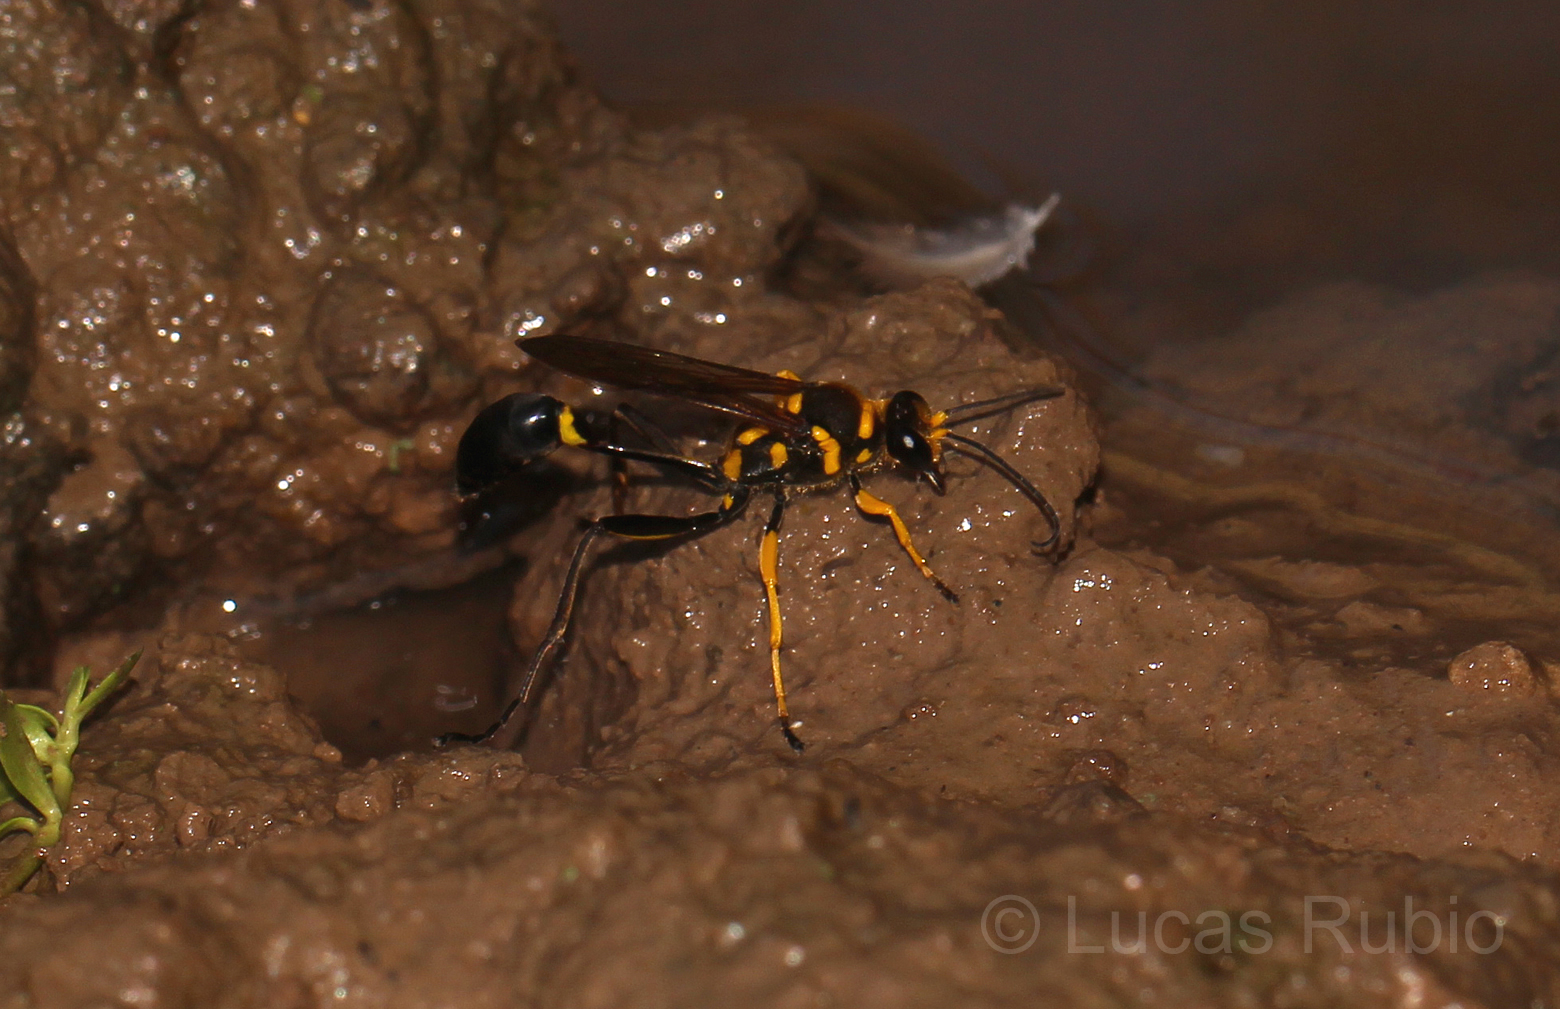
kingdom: Animalia
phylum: Arthropoda
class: Insecta
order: Hymenoptera
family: Sphecidae
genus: Sceliphron
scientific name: Sceliphron fistularium
